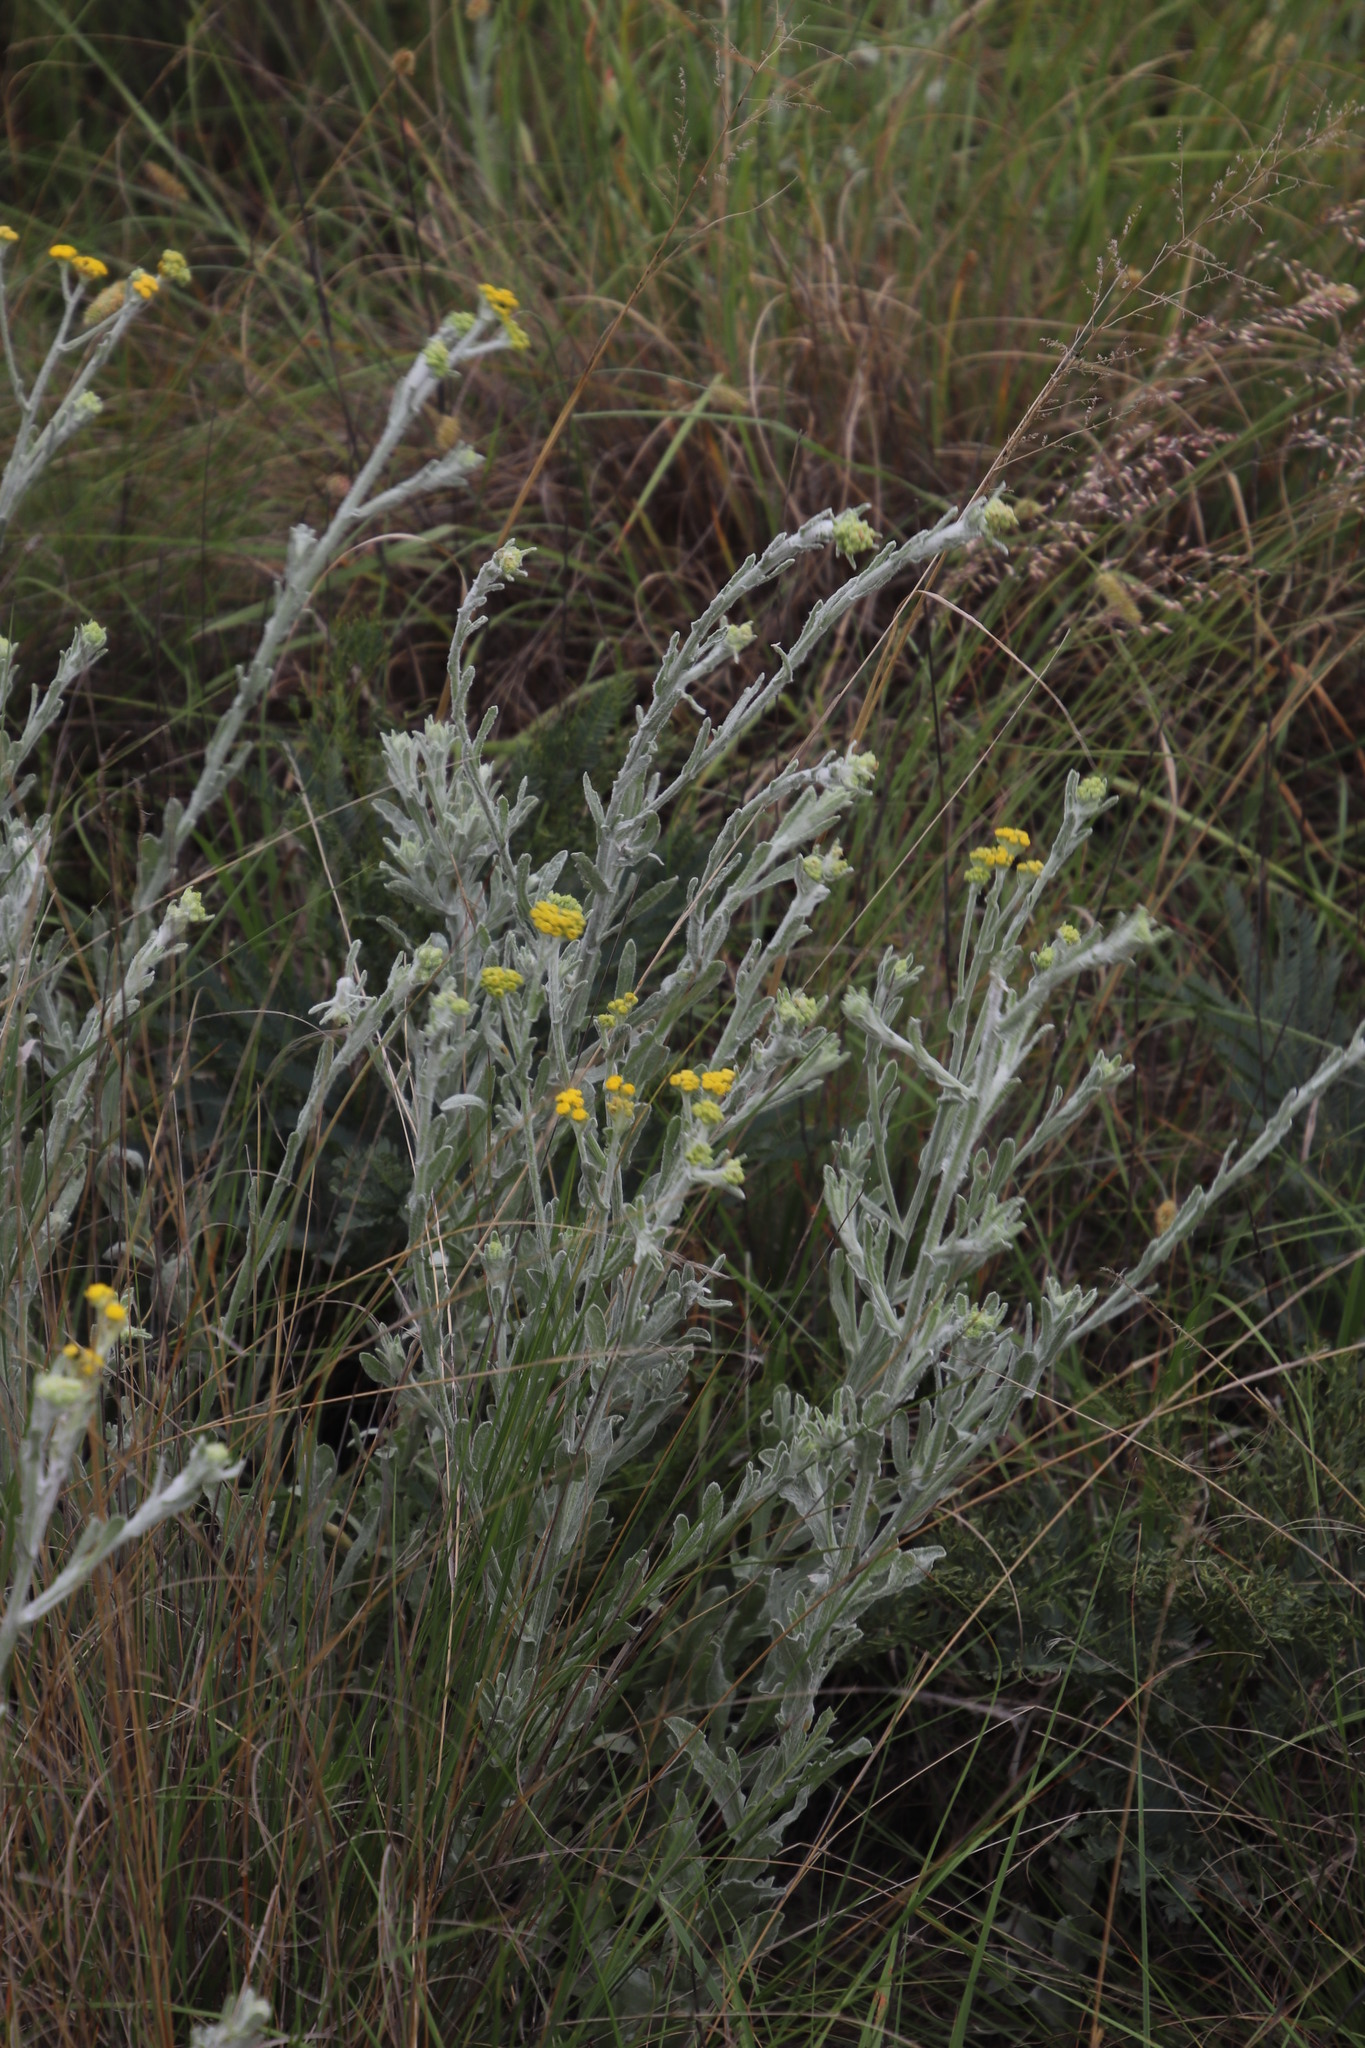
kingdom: Plantae
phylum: Tracheophyta
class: Magnoliopsida
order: Asterales
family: Asteraceae
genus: Nidorella
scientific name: Nidorella hottentotica
